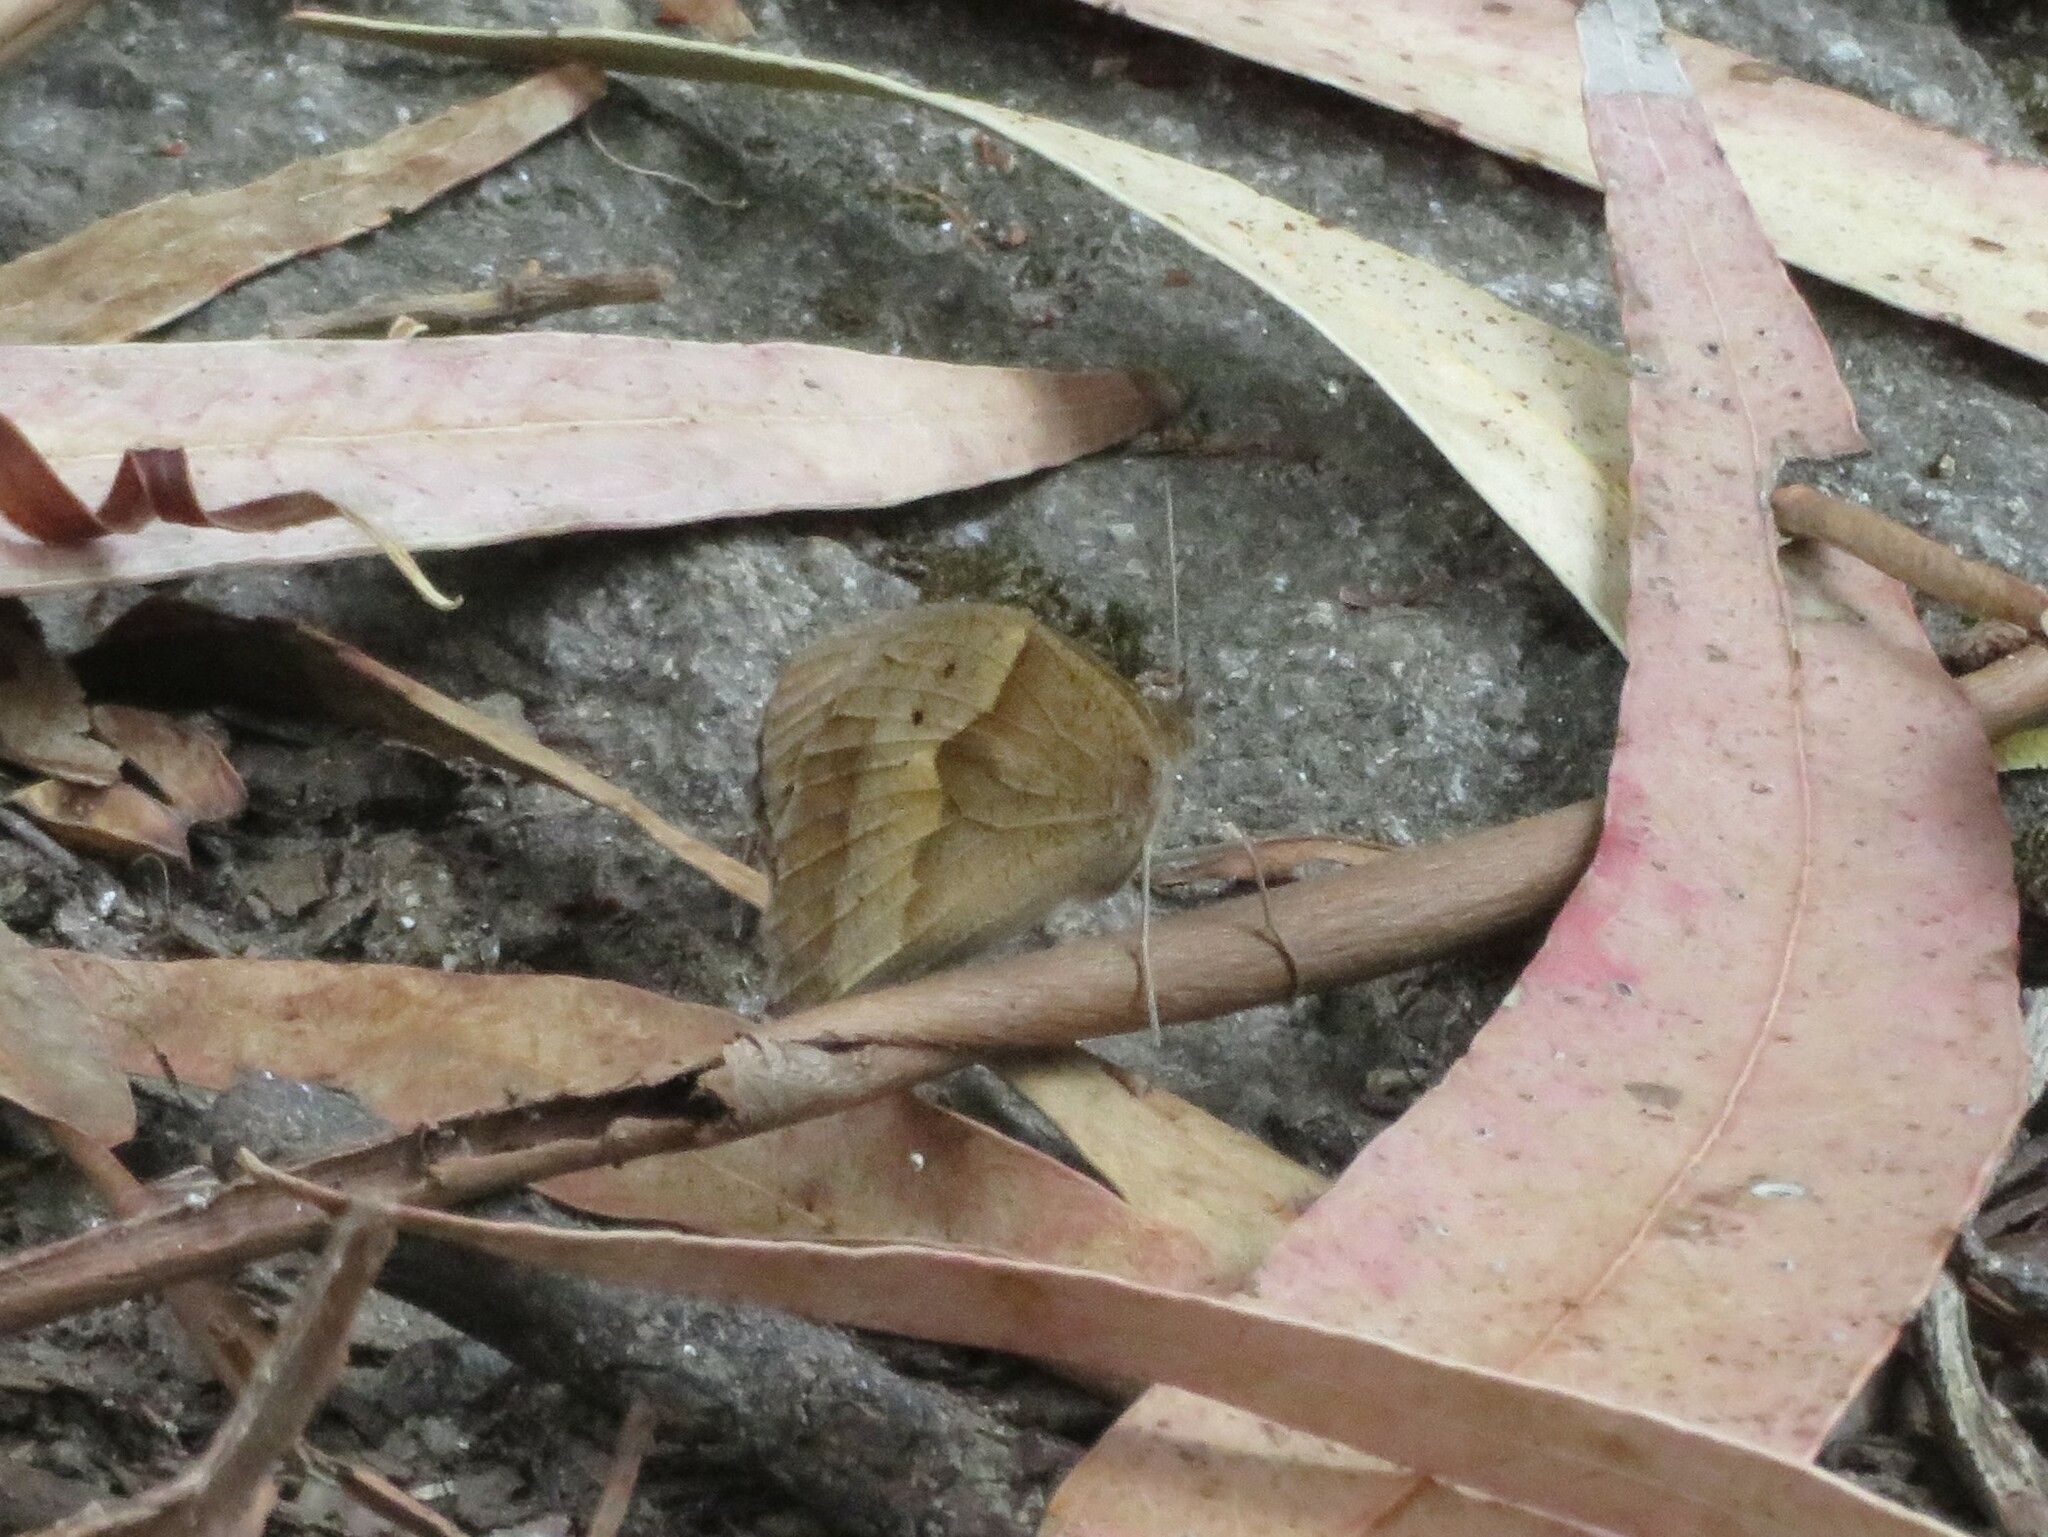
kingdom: Animalia
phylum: Arthropoda
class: Insecta
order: Lepidoptera
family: Nymphalidae
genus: Maniola
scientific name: Maniola jurtina
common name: Meadow brown
